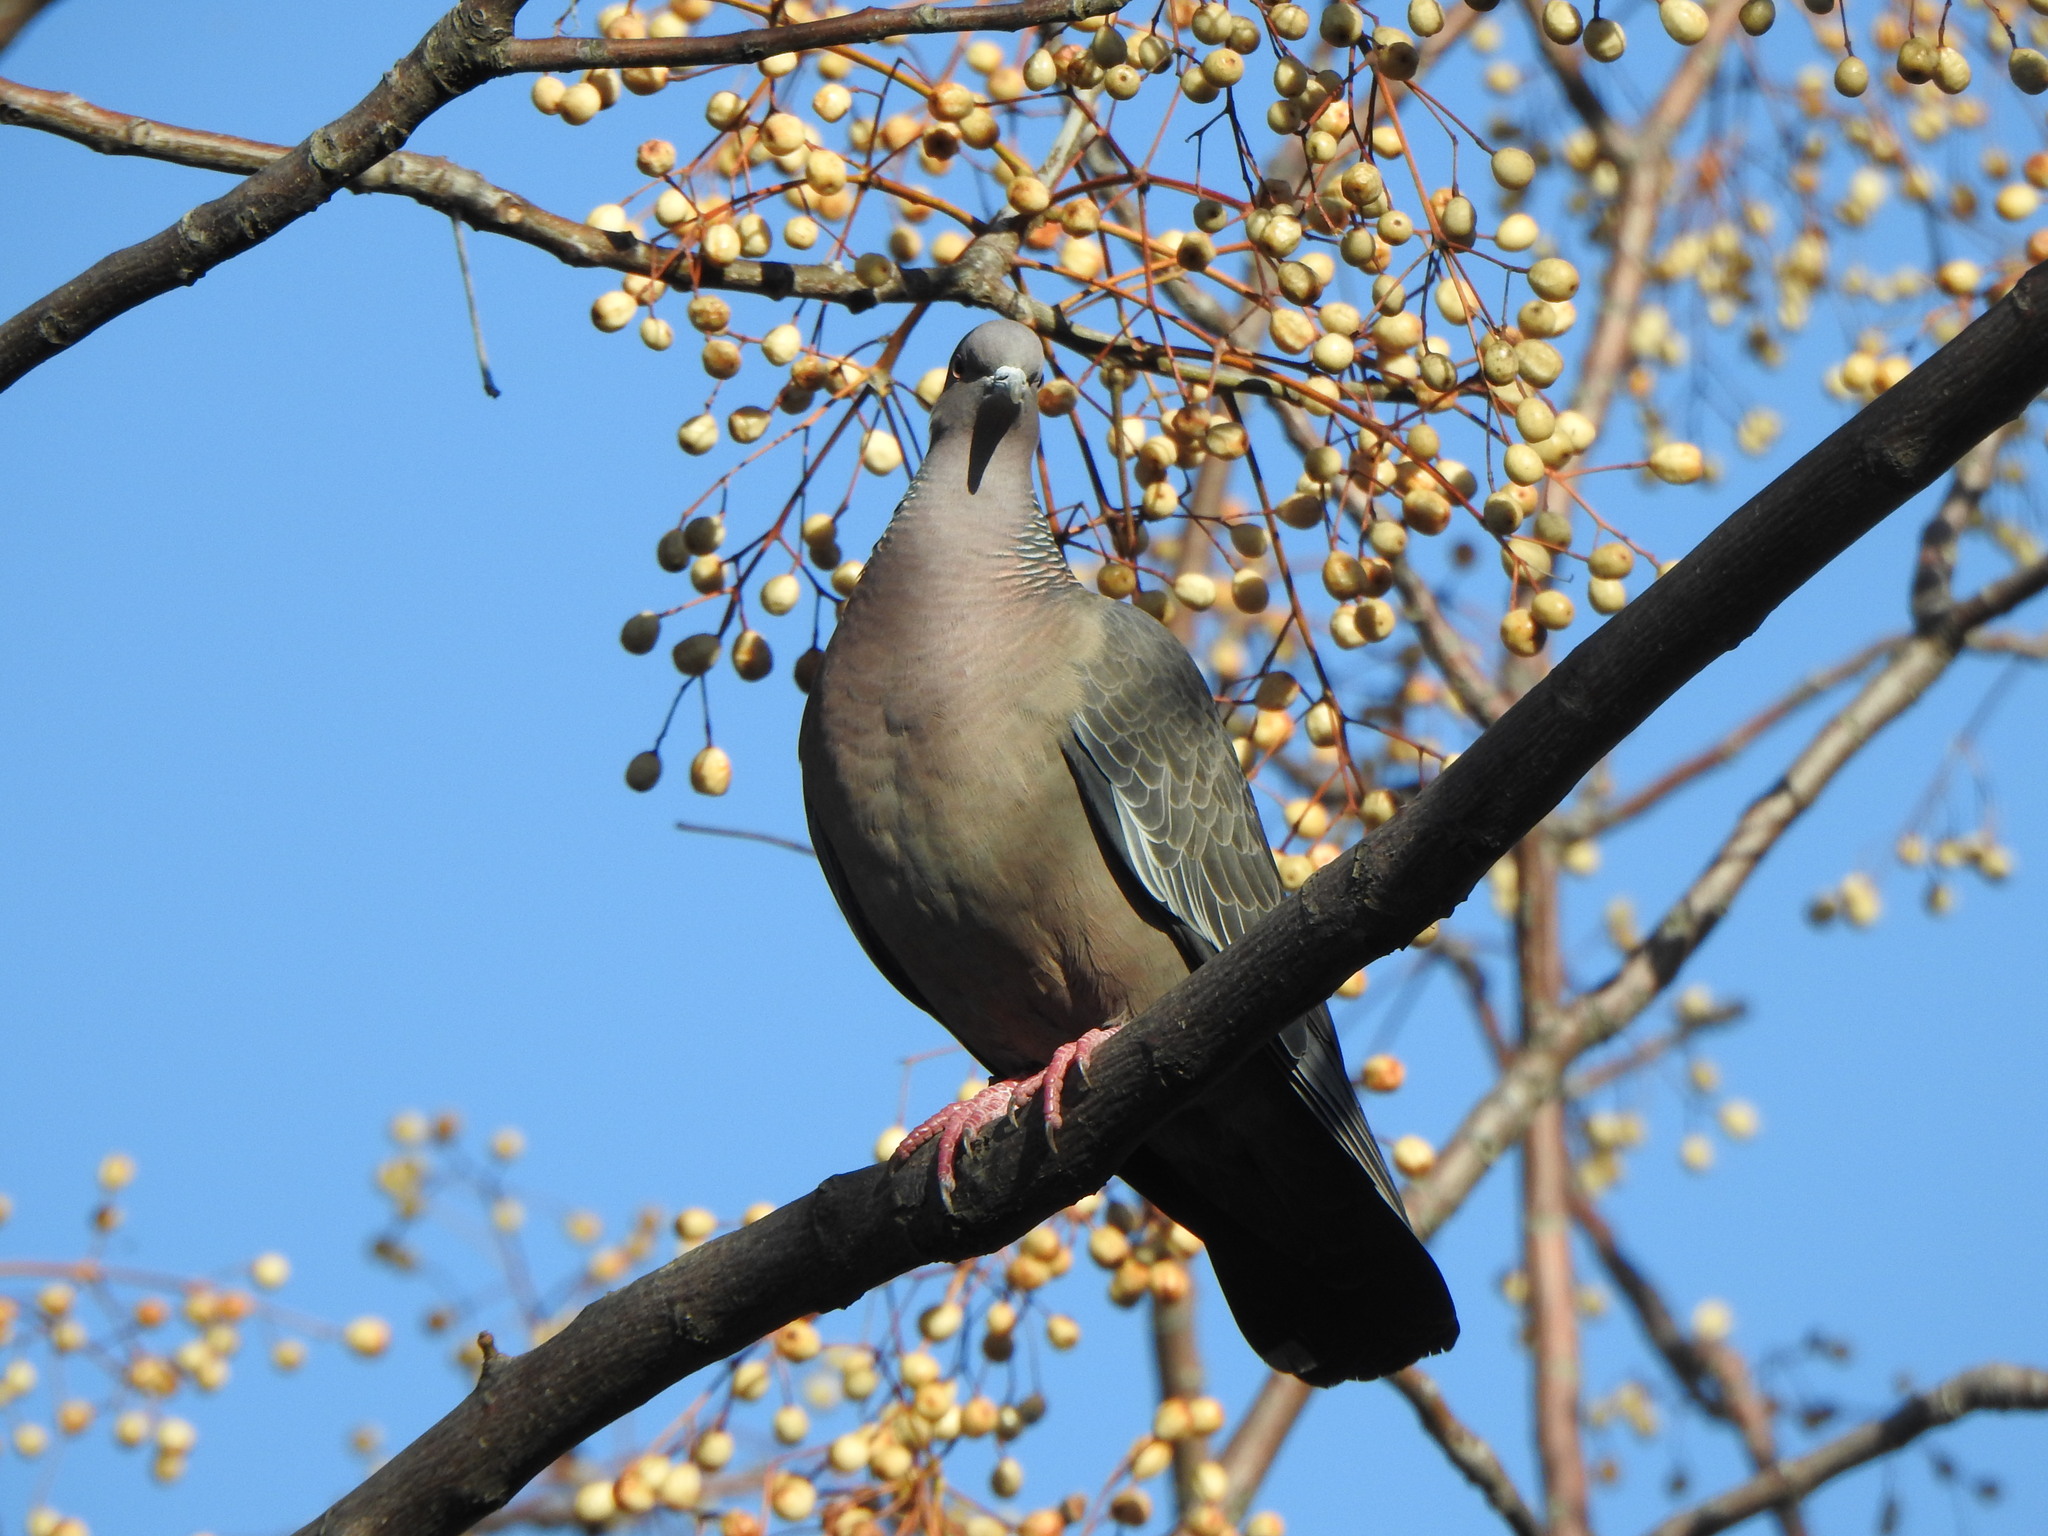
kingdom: Animalia
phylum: Chordata
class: Aves
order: Columbiformes
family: Columbidae
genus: Patagioenas
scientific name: Patagioenas picazuro
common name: Picazuro pigeon
